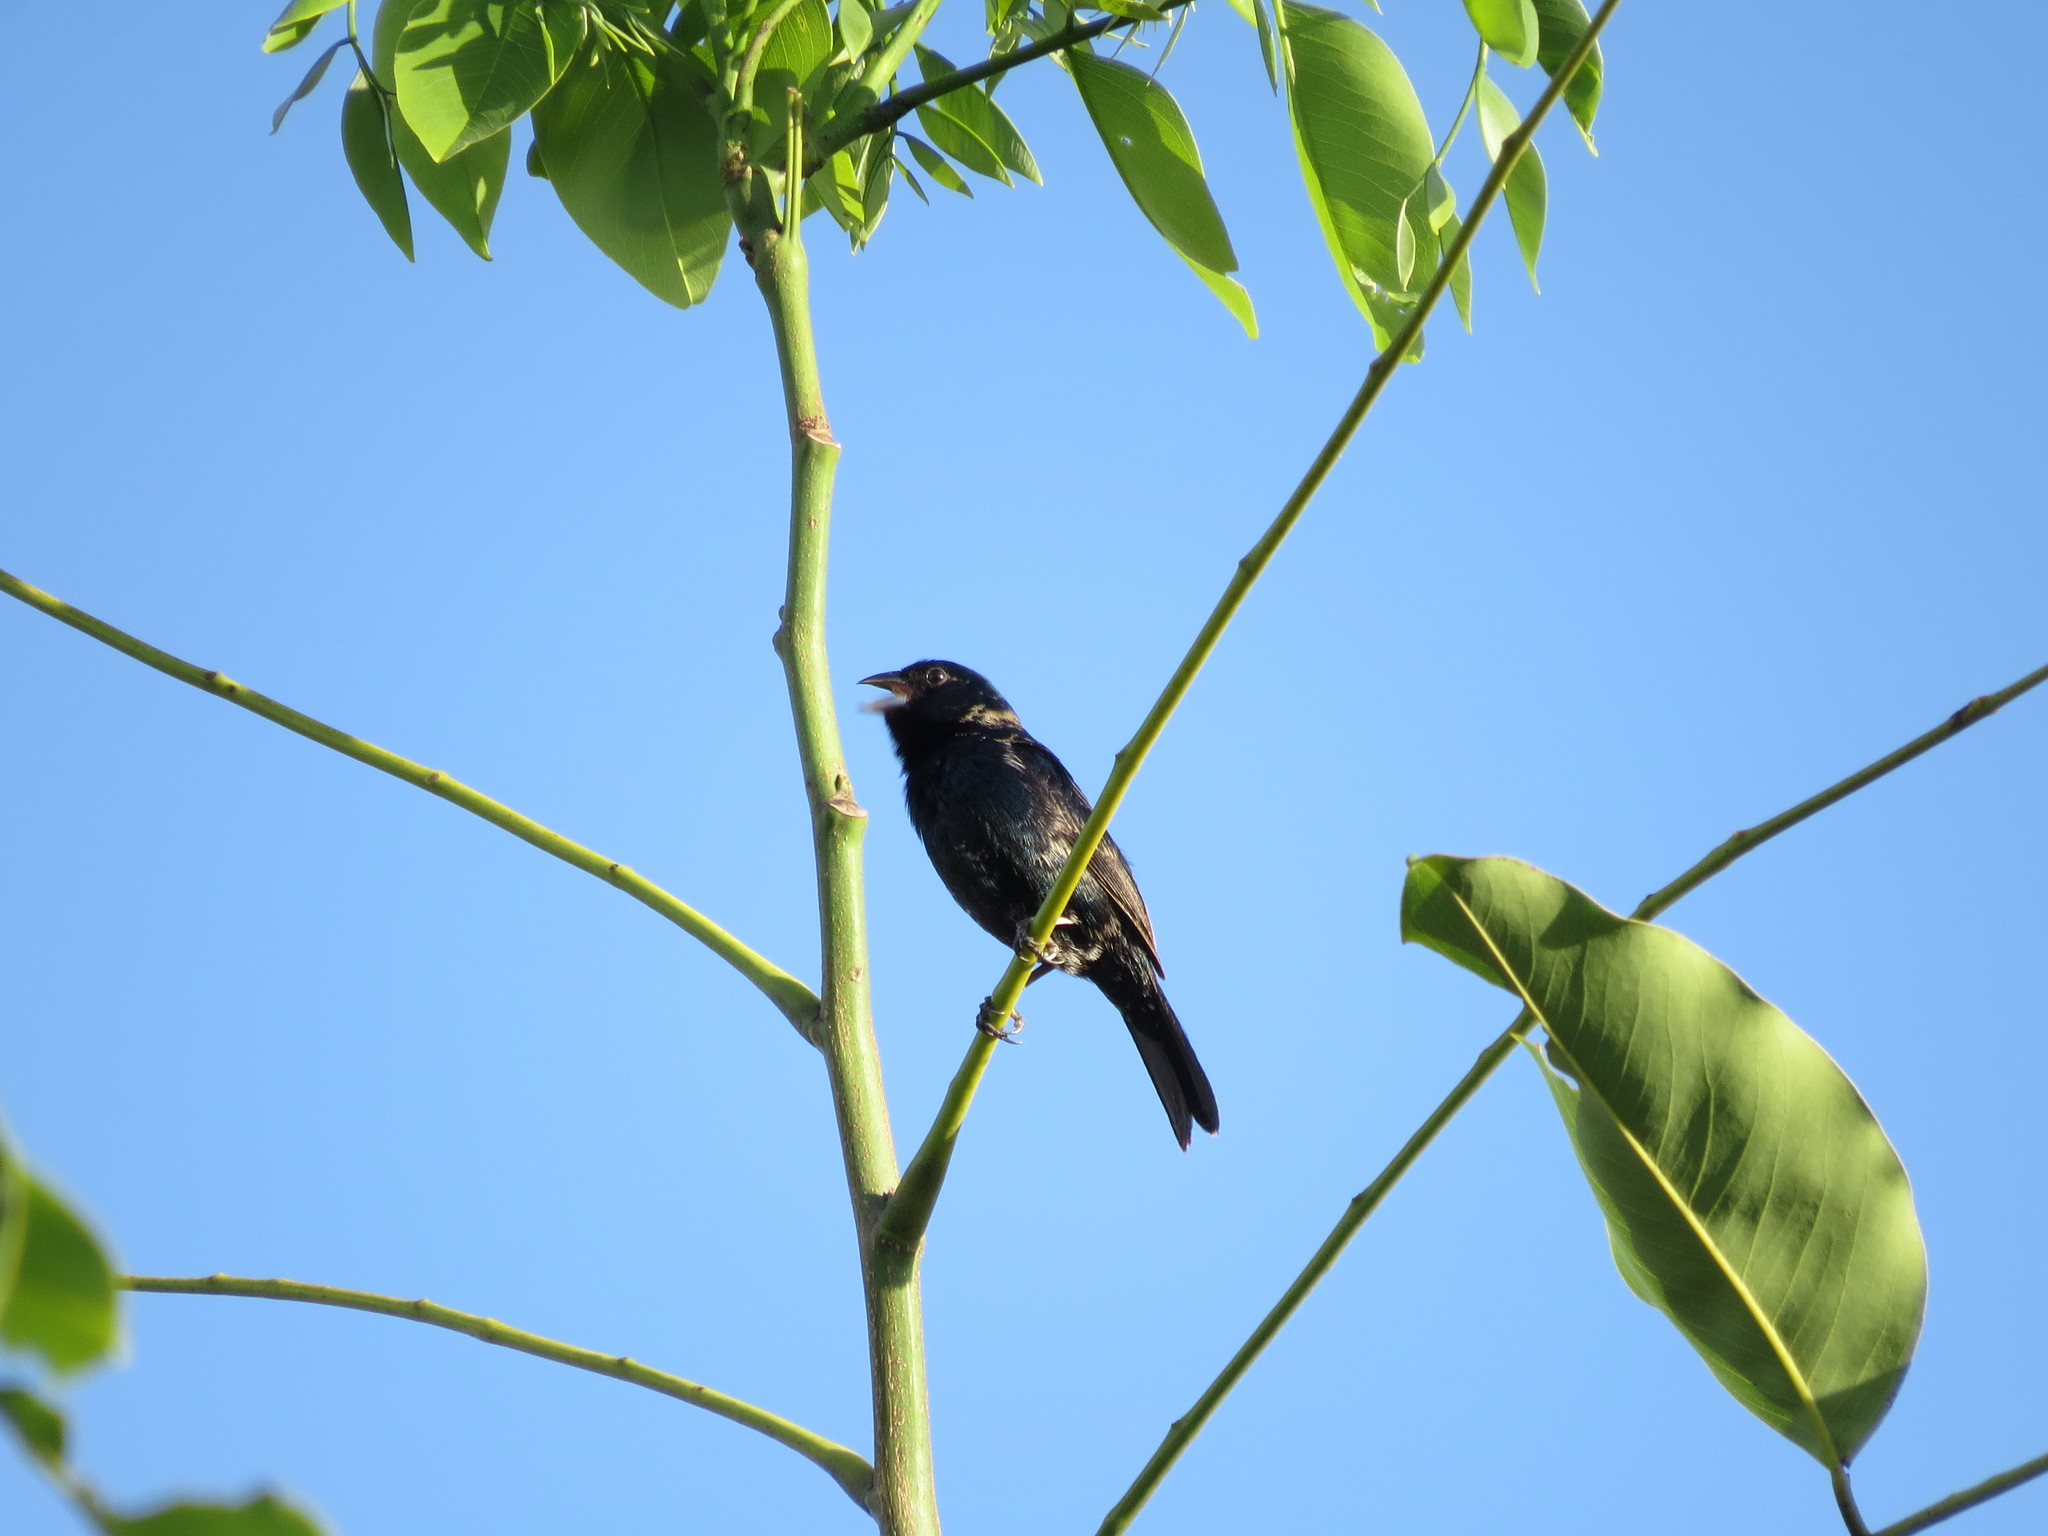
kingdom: Animalia
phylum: Chordata
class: Aves
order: Passeriformes
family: Thraupidae
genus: Volatinia
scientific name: Volatinia jacarina
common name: Blue-black grassquit
